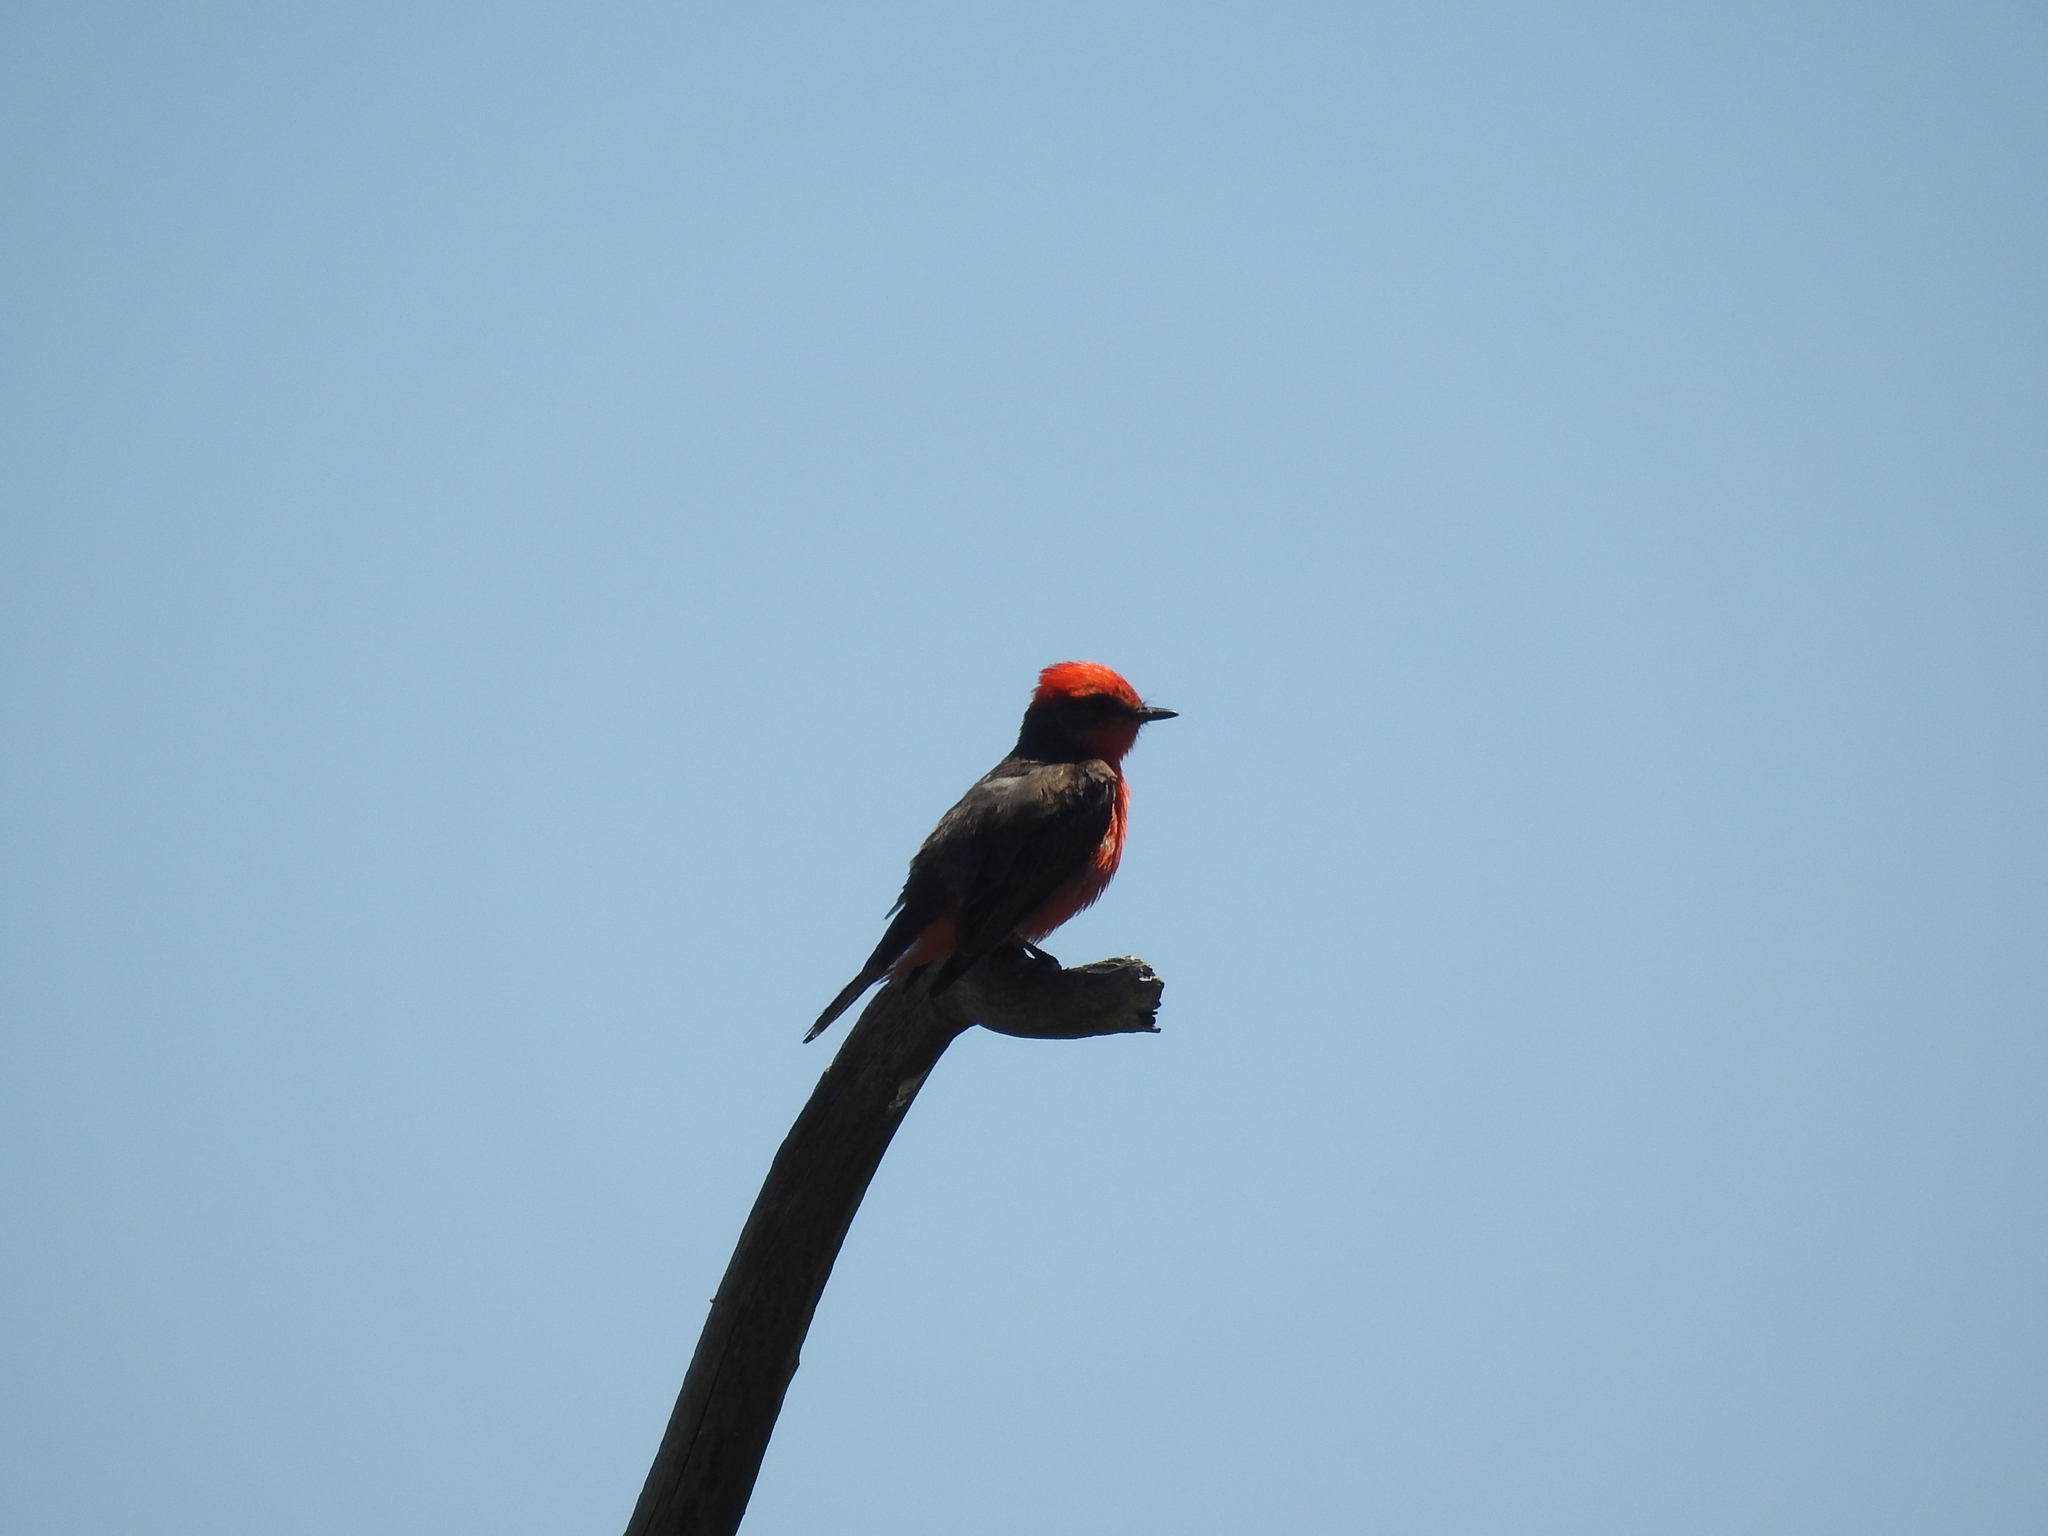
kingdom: Animalia
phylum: Chordata
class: Aves
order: Passeriformes
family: Tyrannidae
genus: Pyrocephalus
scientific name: Pyrocephalus rubinus
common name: Vermilion flycatcher
